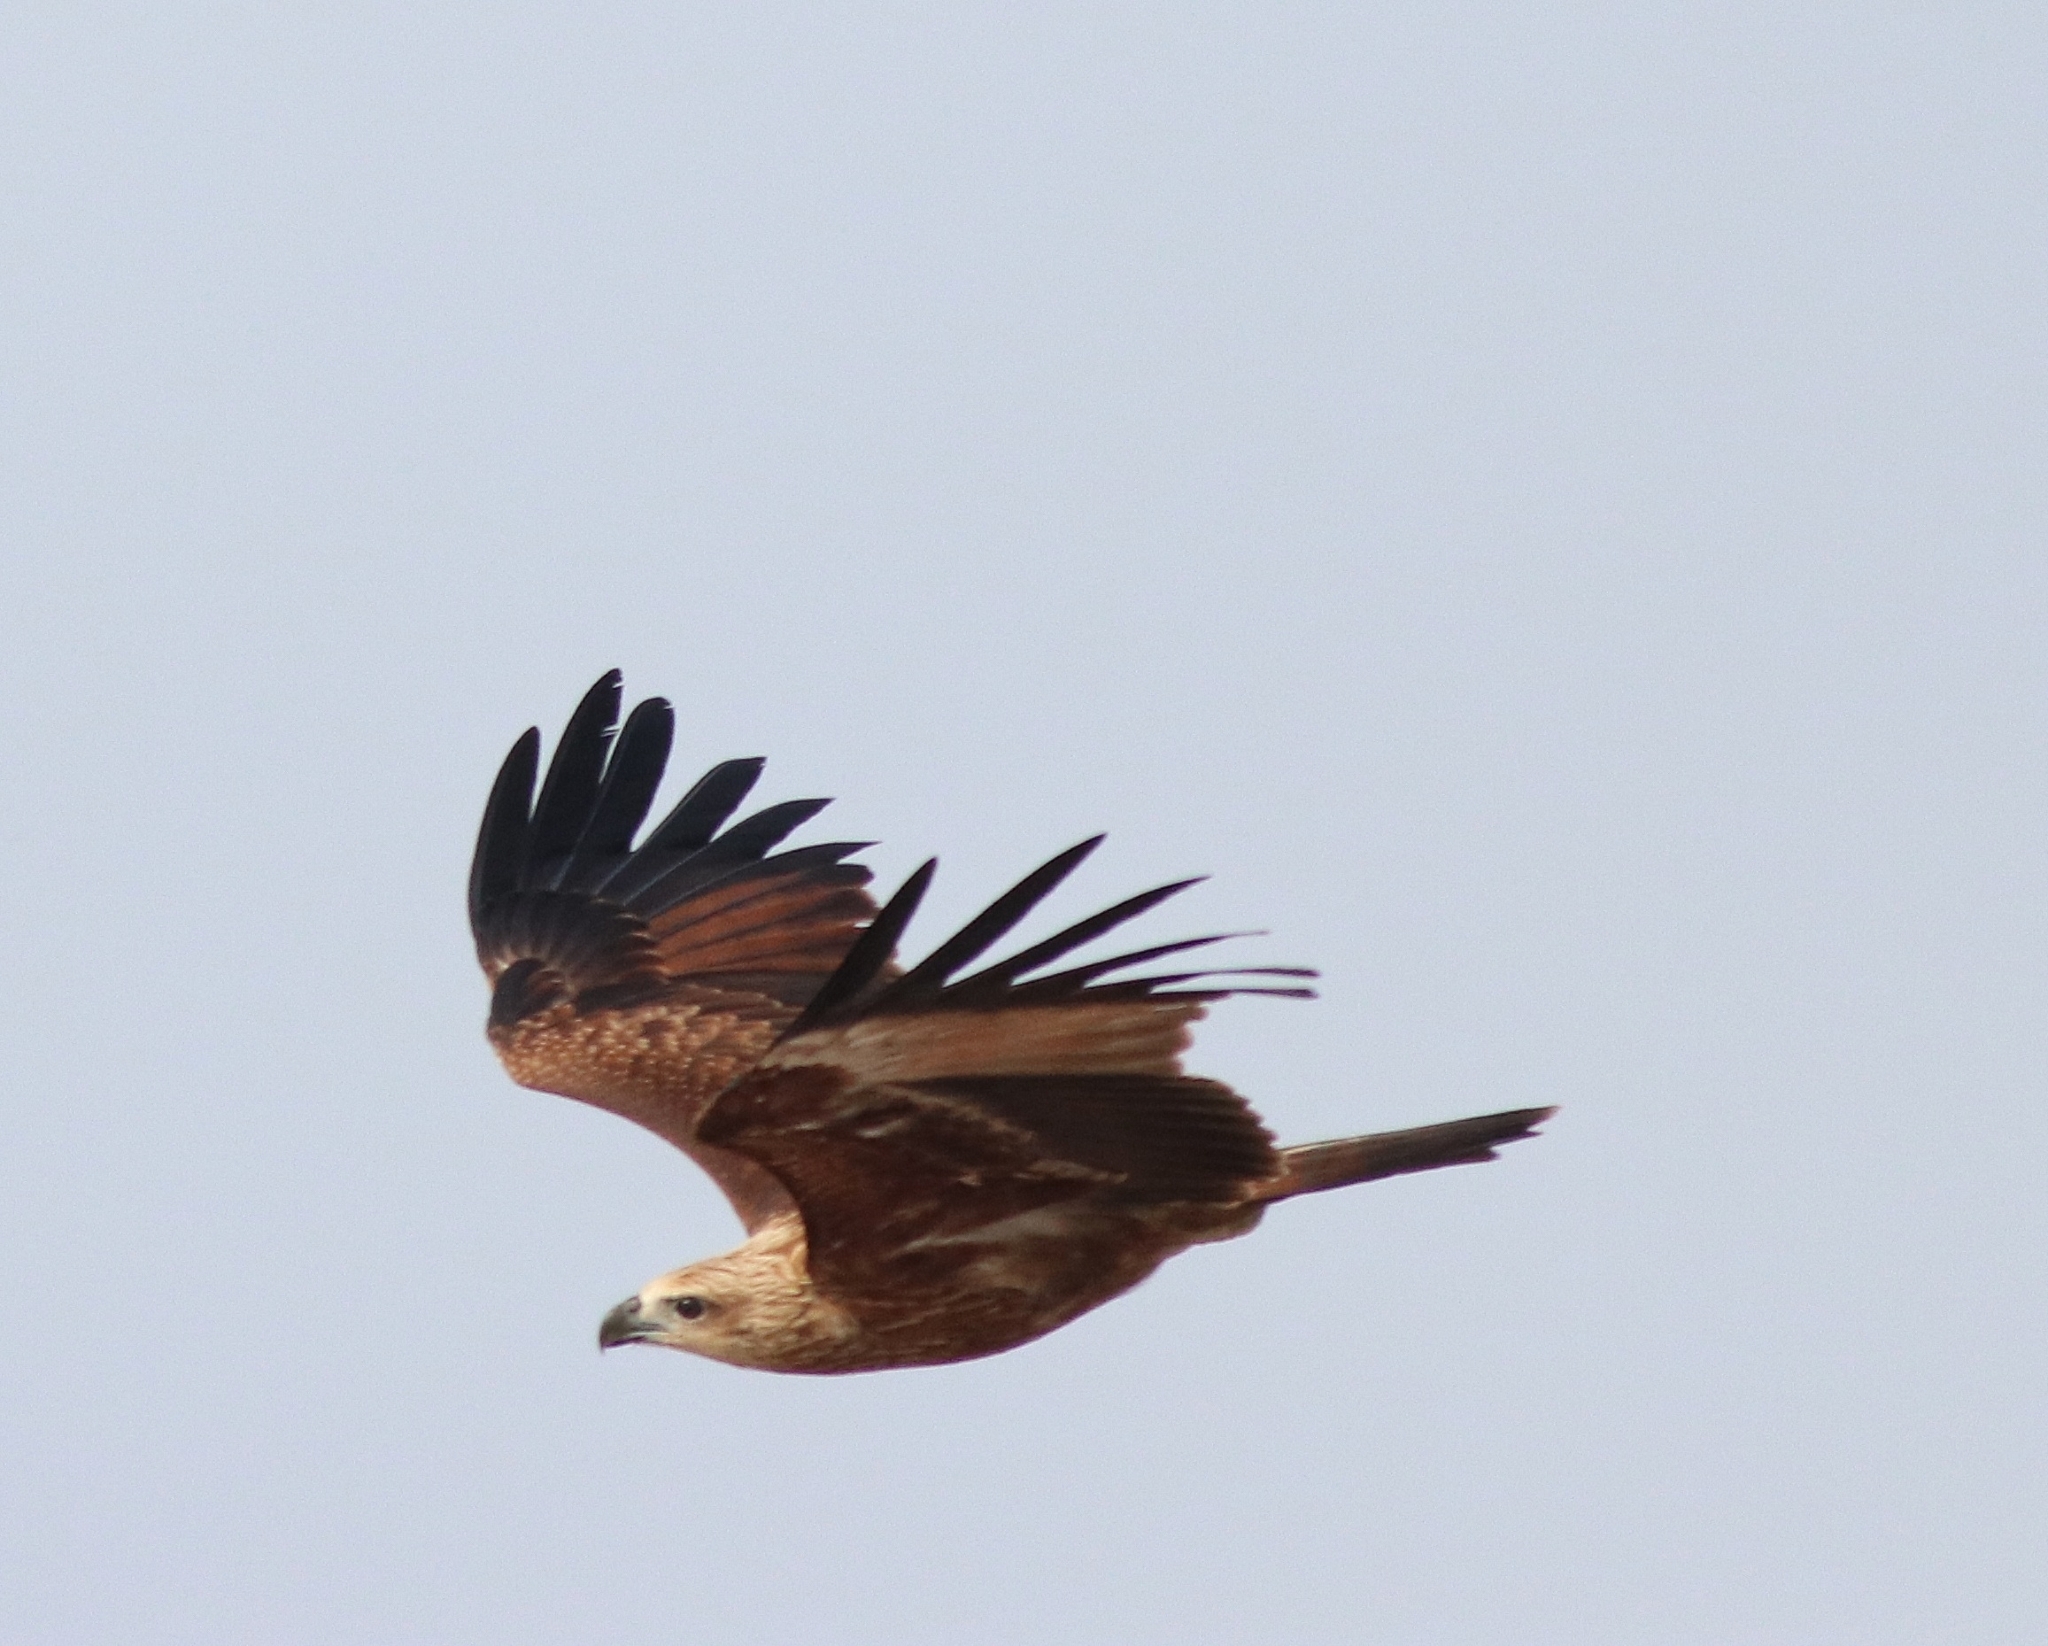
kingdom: Animalia
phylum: Chordata
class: Aves
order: Accipitriformes
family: Accipitridae
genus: Haliastur
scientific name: Haliastur indus
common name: Brahminy kite
